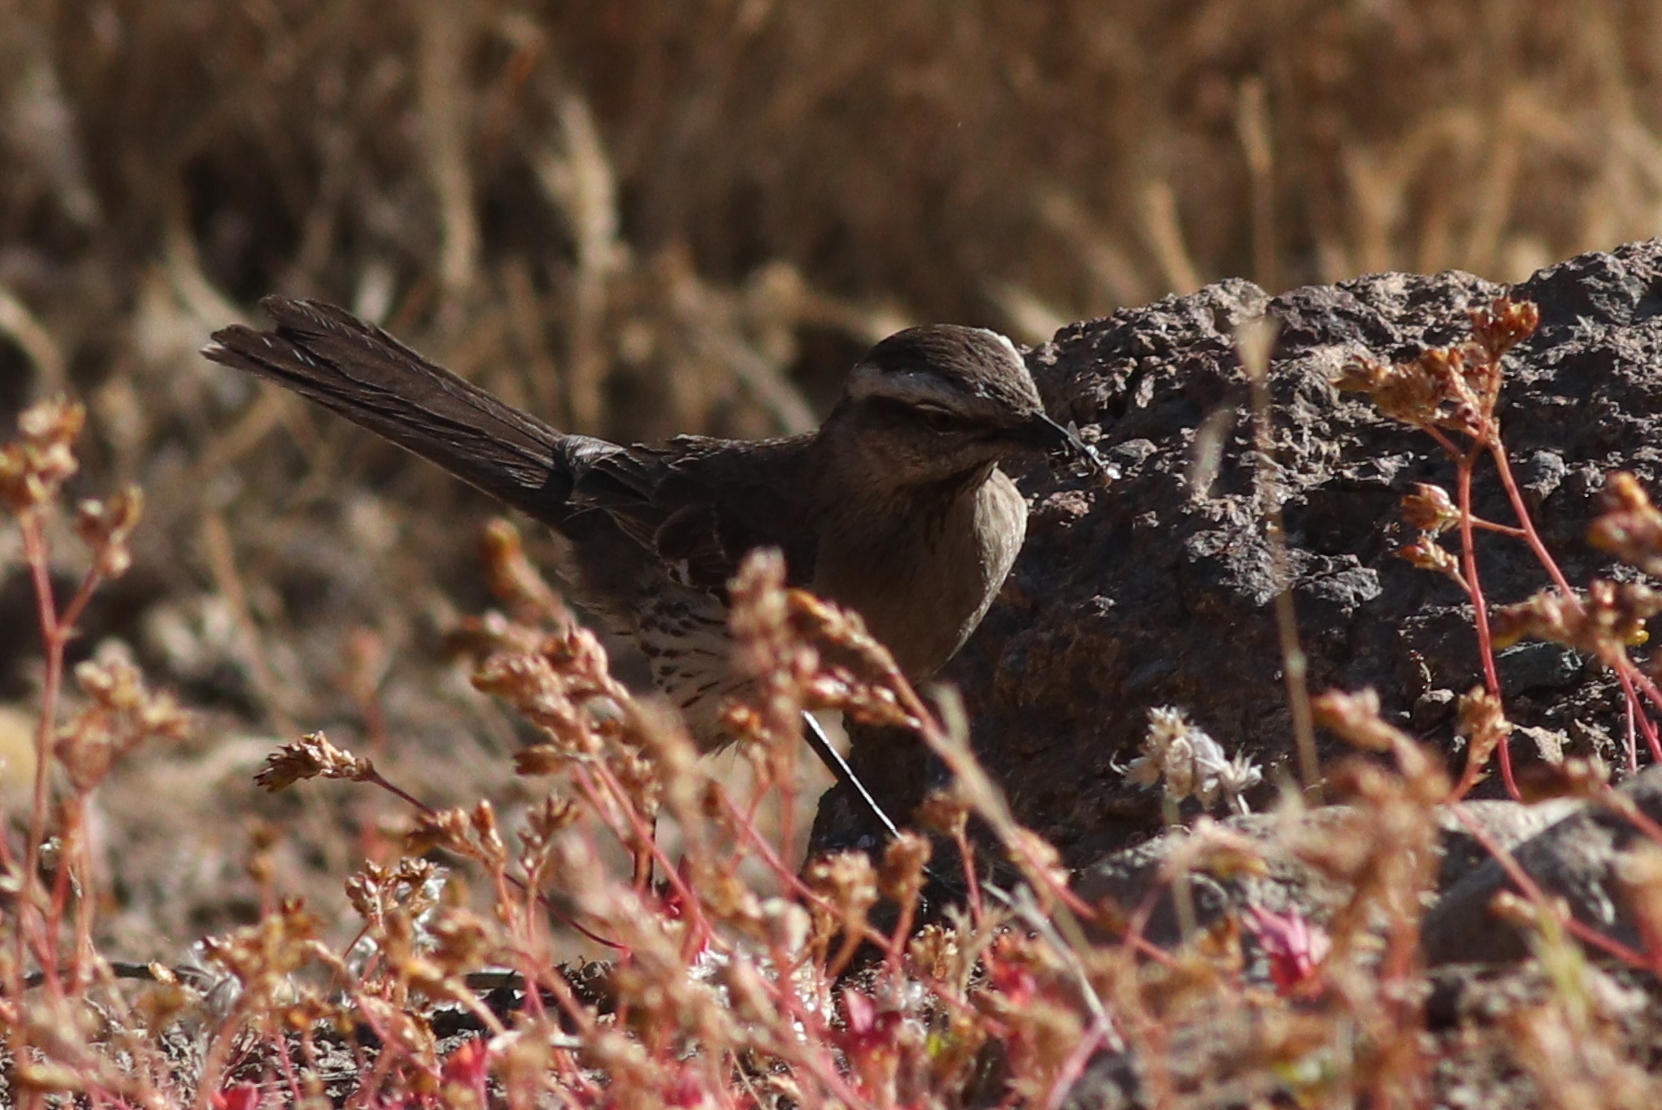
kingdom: Animalia
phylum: Chordata
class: Aves
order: Passeriformes
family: Mimidae
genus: Mimus
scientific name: Mimus thenca
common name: Chilean mockingbird
